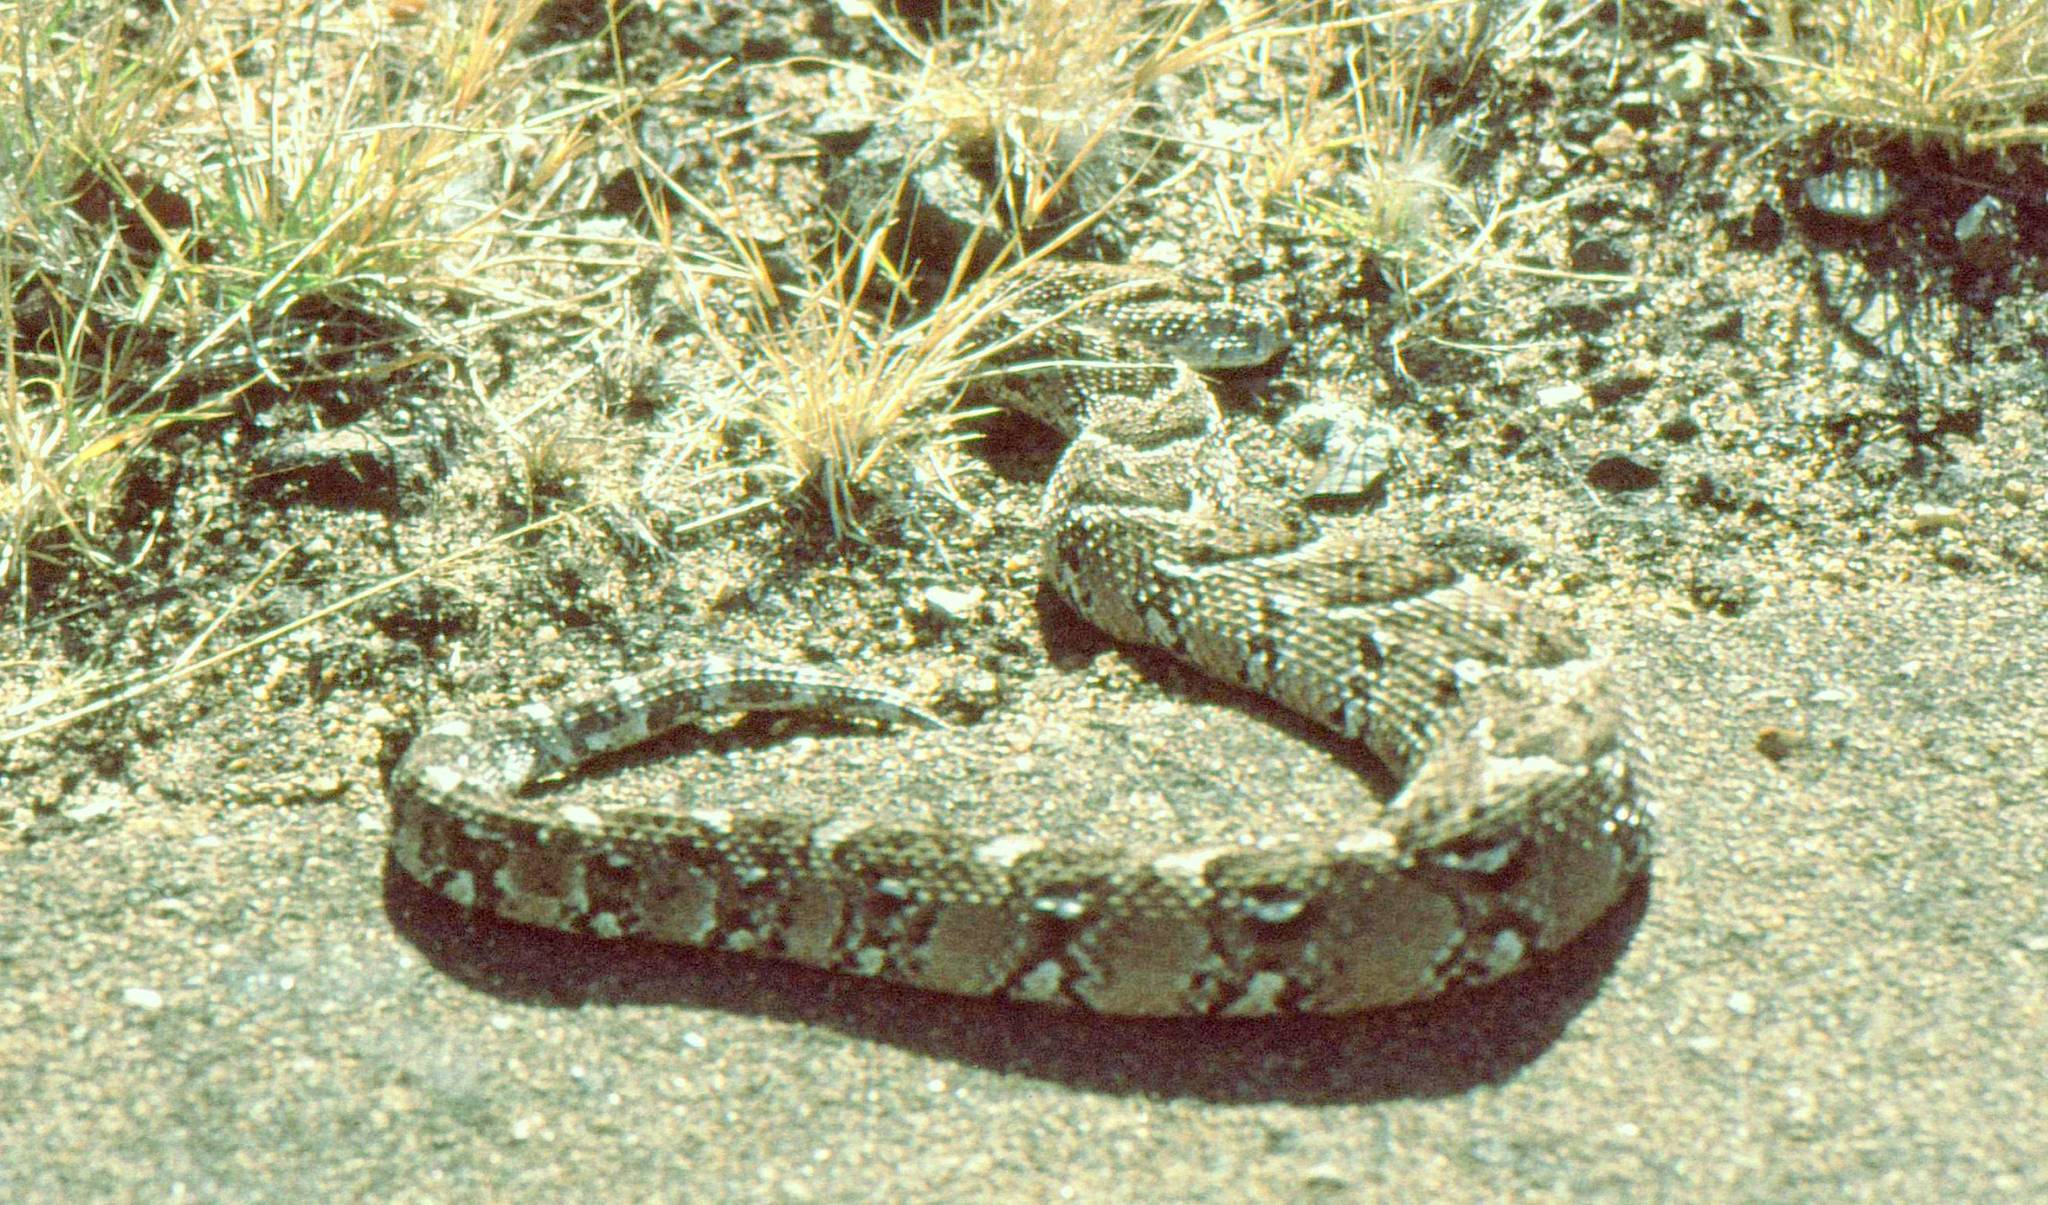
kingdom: Animalia
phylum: Chordata
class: Squamata
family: Viperidae
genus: Bitis
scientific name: Bitis arietans
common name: Puff adder
